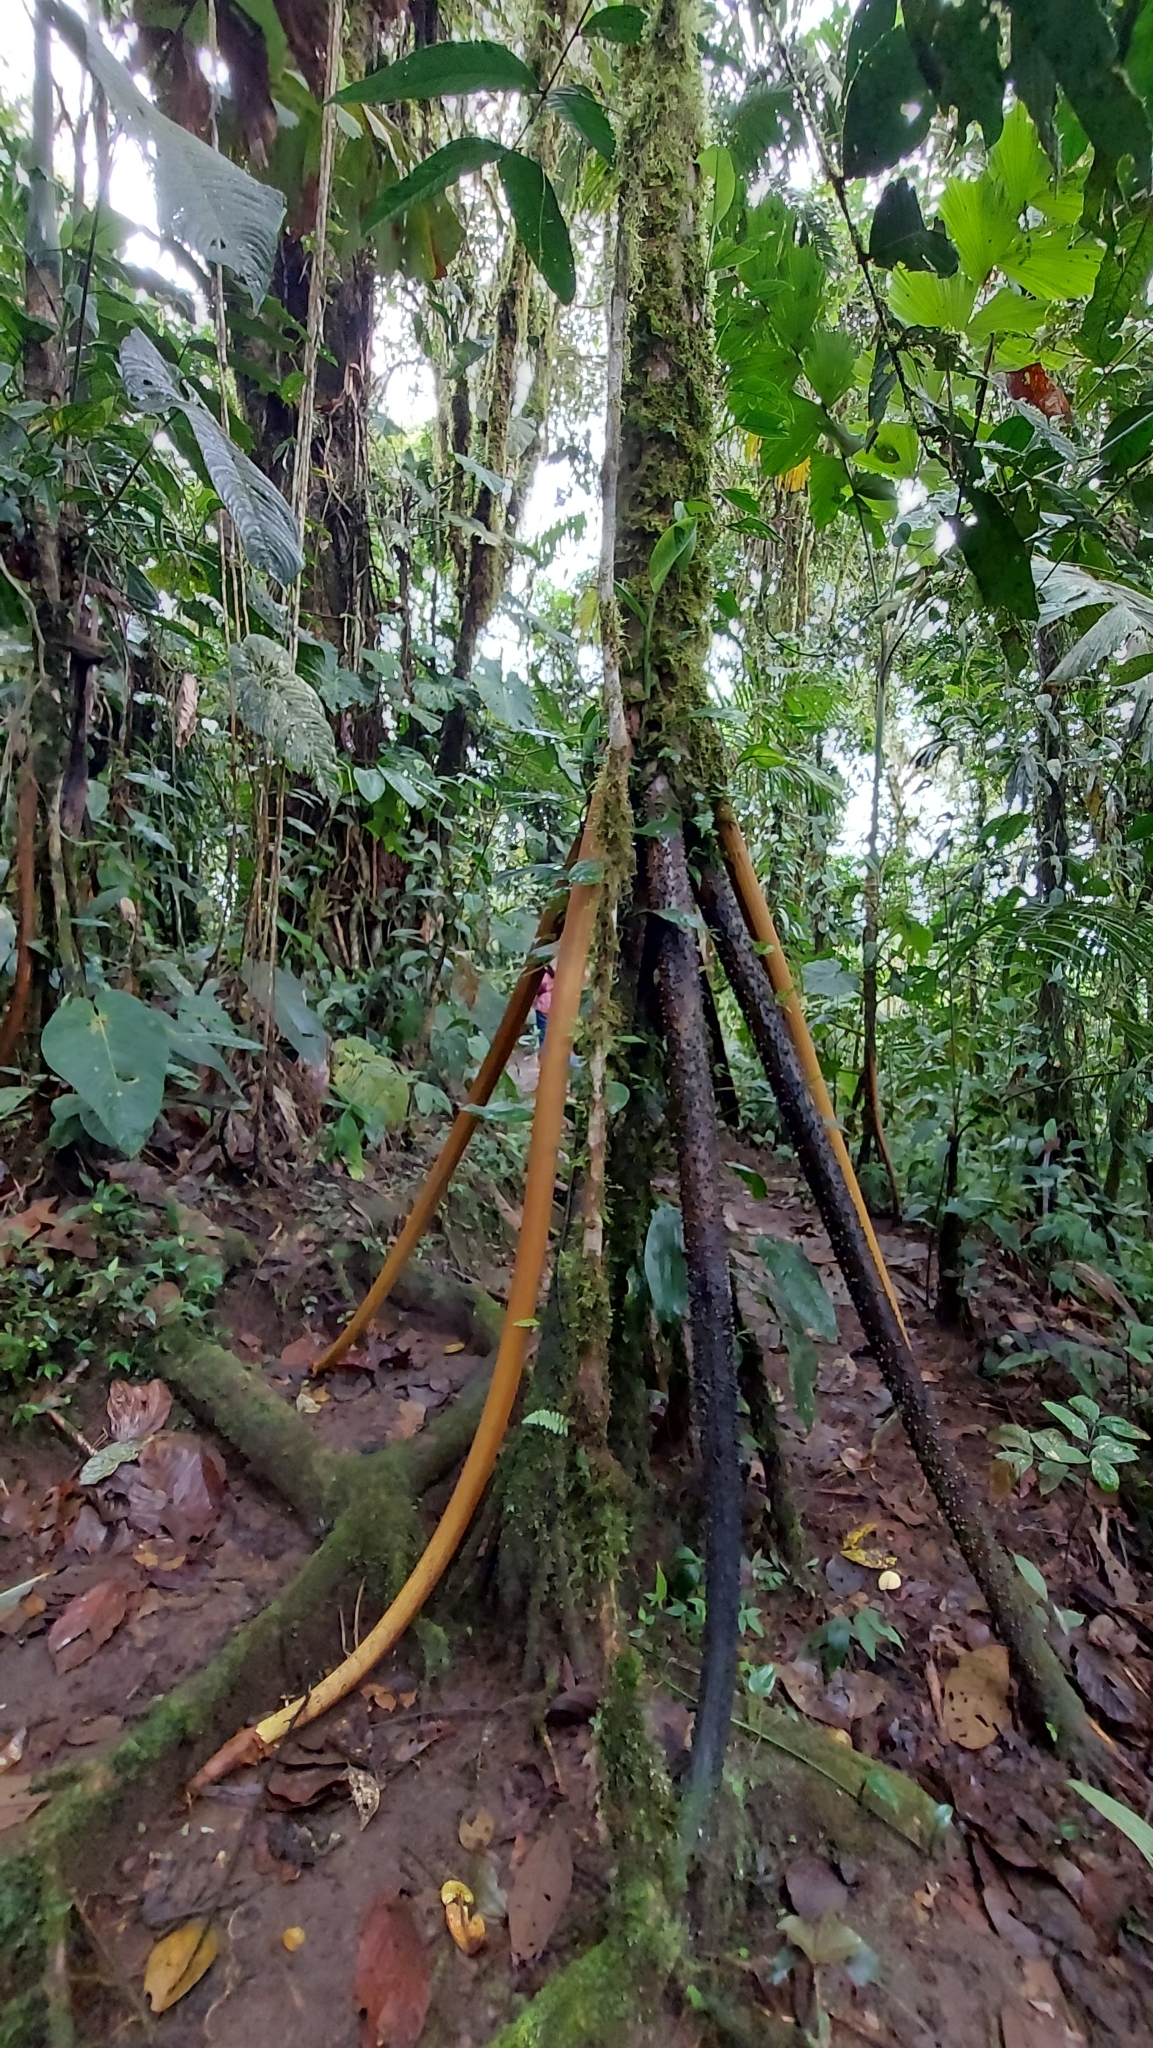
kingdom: Plantae
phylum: Tracheophyta
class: Liliopsida
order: Arecales
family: Arecaceae
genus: Socratea
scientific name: Socratea exorrhiza
